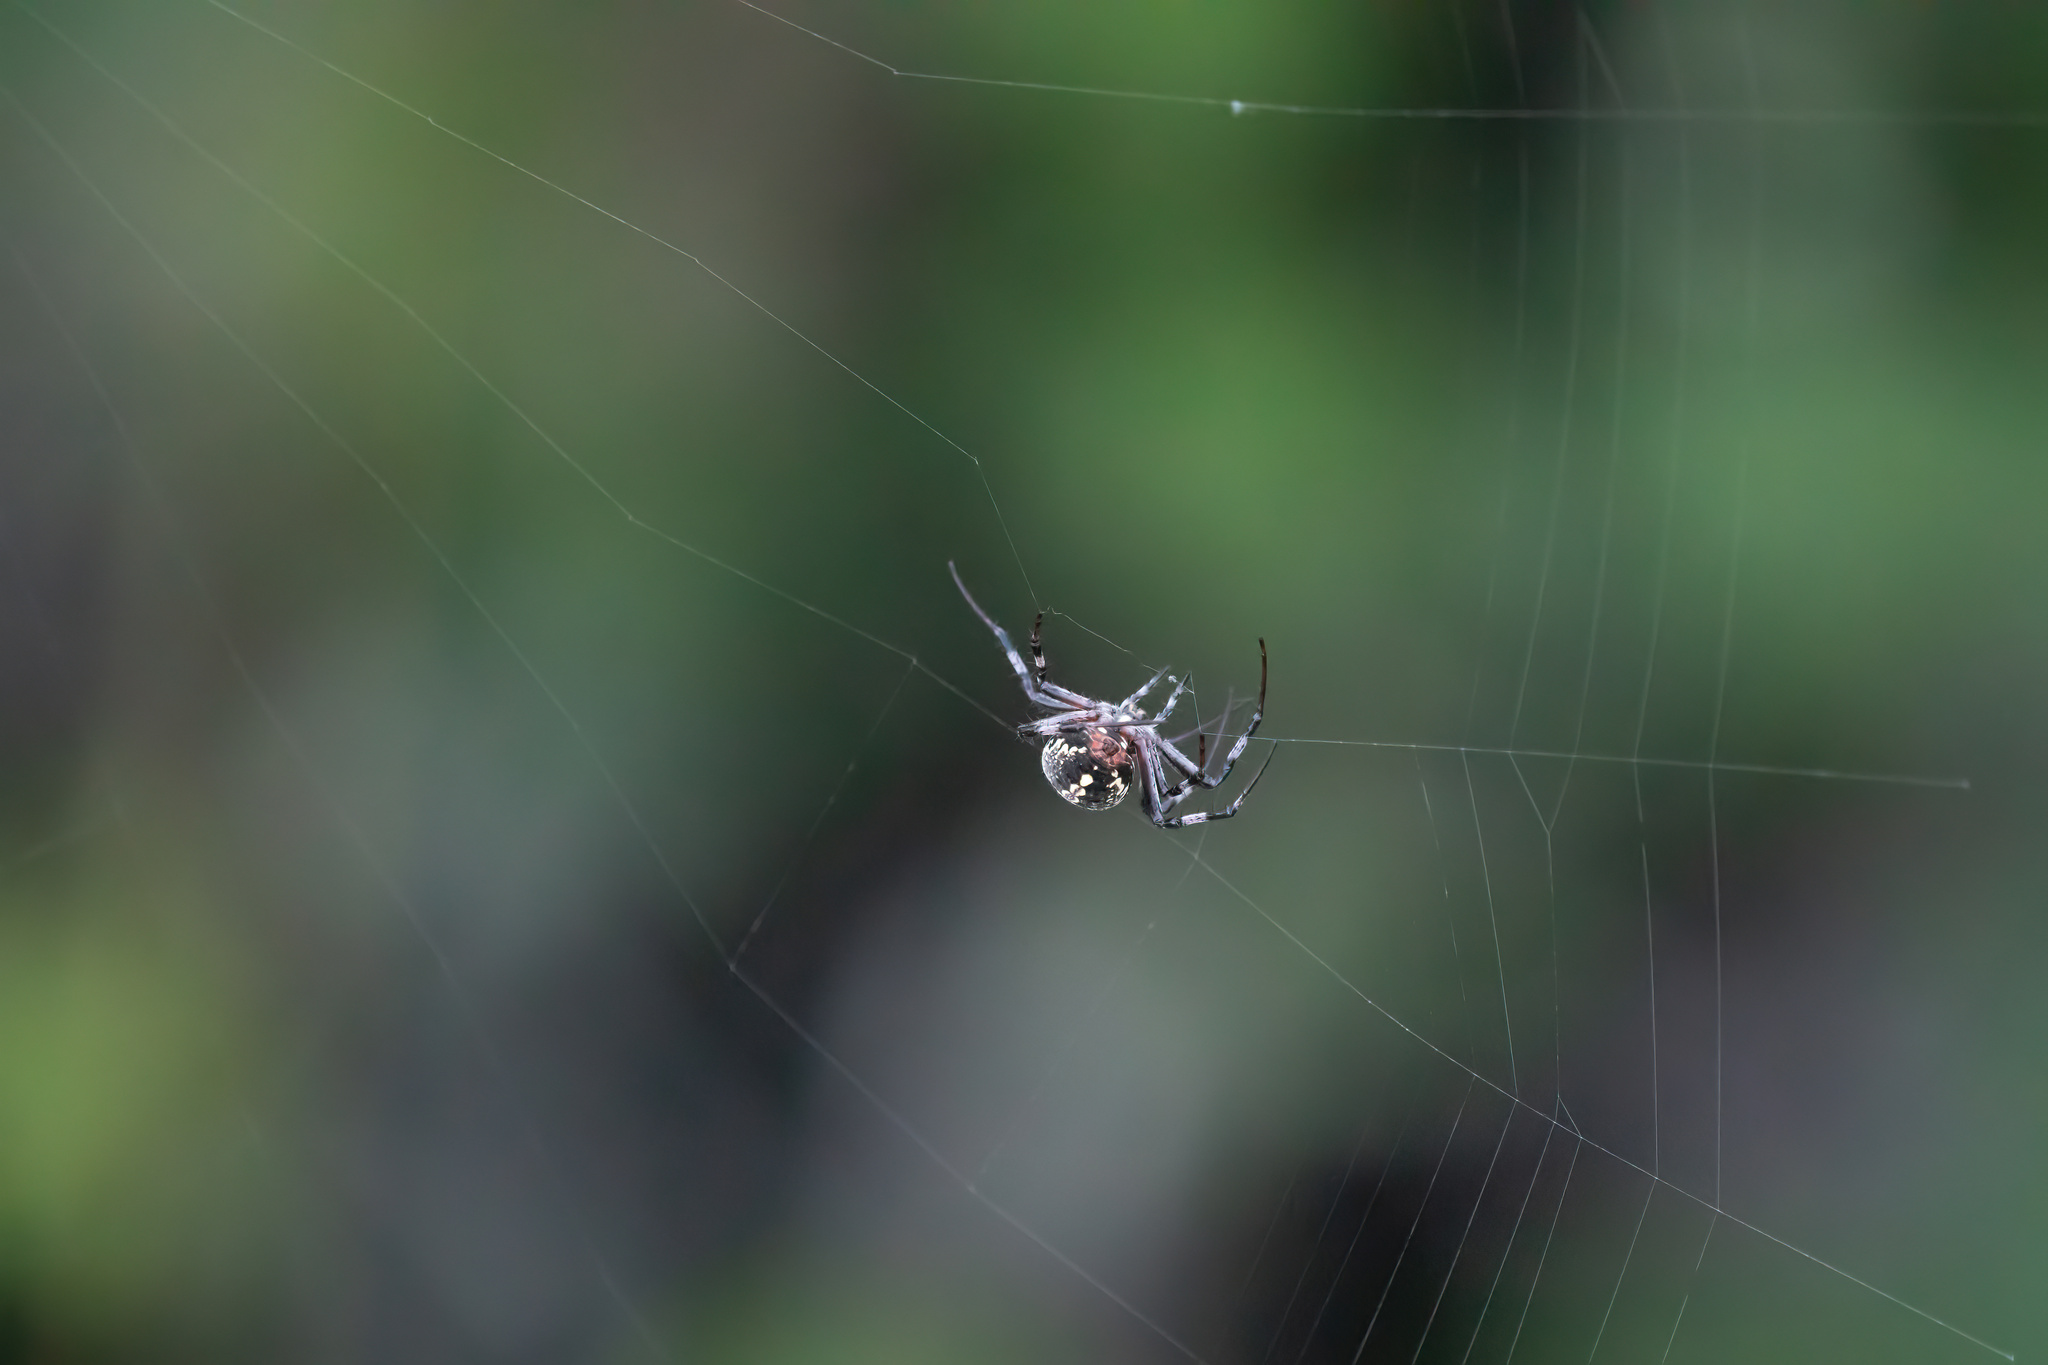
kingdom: Animalia
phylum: Arthropoda
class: Arachnida
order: Araneae
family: Araneidae
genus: Neoscona
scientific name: Neoscona oaxacensis
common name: Orb weavers
